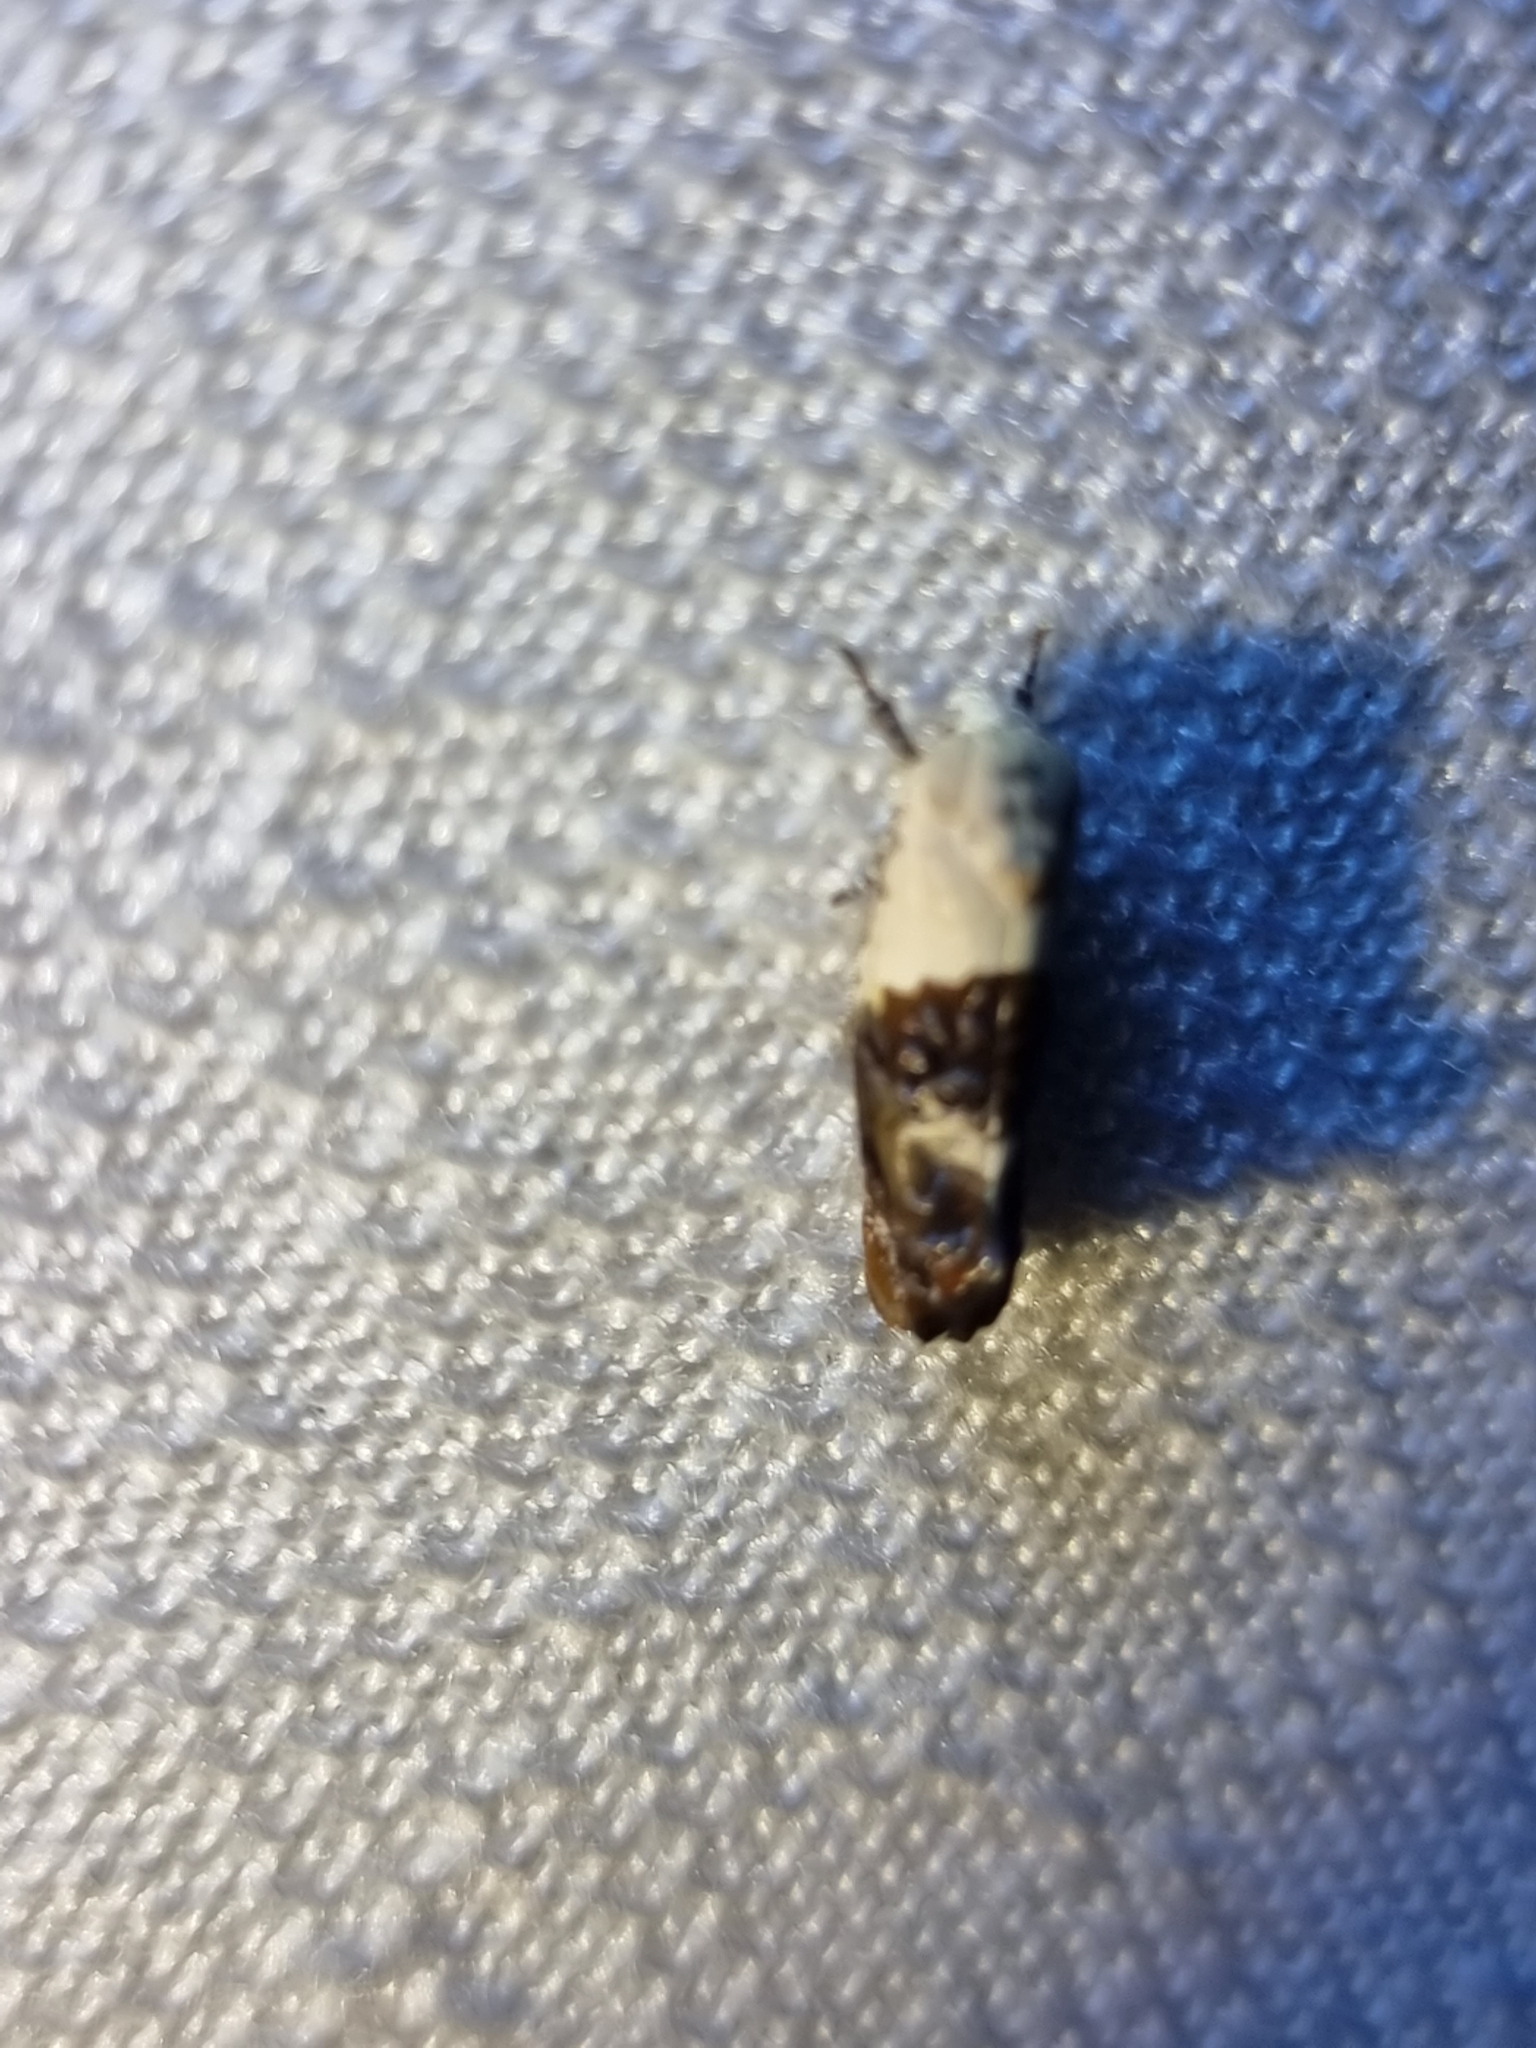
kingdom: Animalia
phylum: Arthropoda
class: Insecta
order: Lepidoptera
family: Depressariidae
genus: Hypertropha
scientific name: Hypertropha chlaenota
